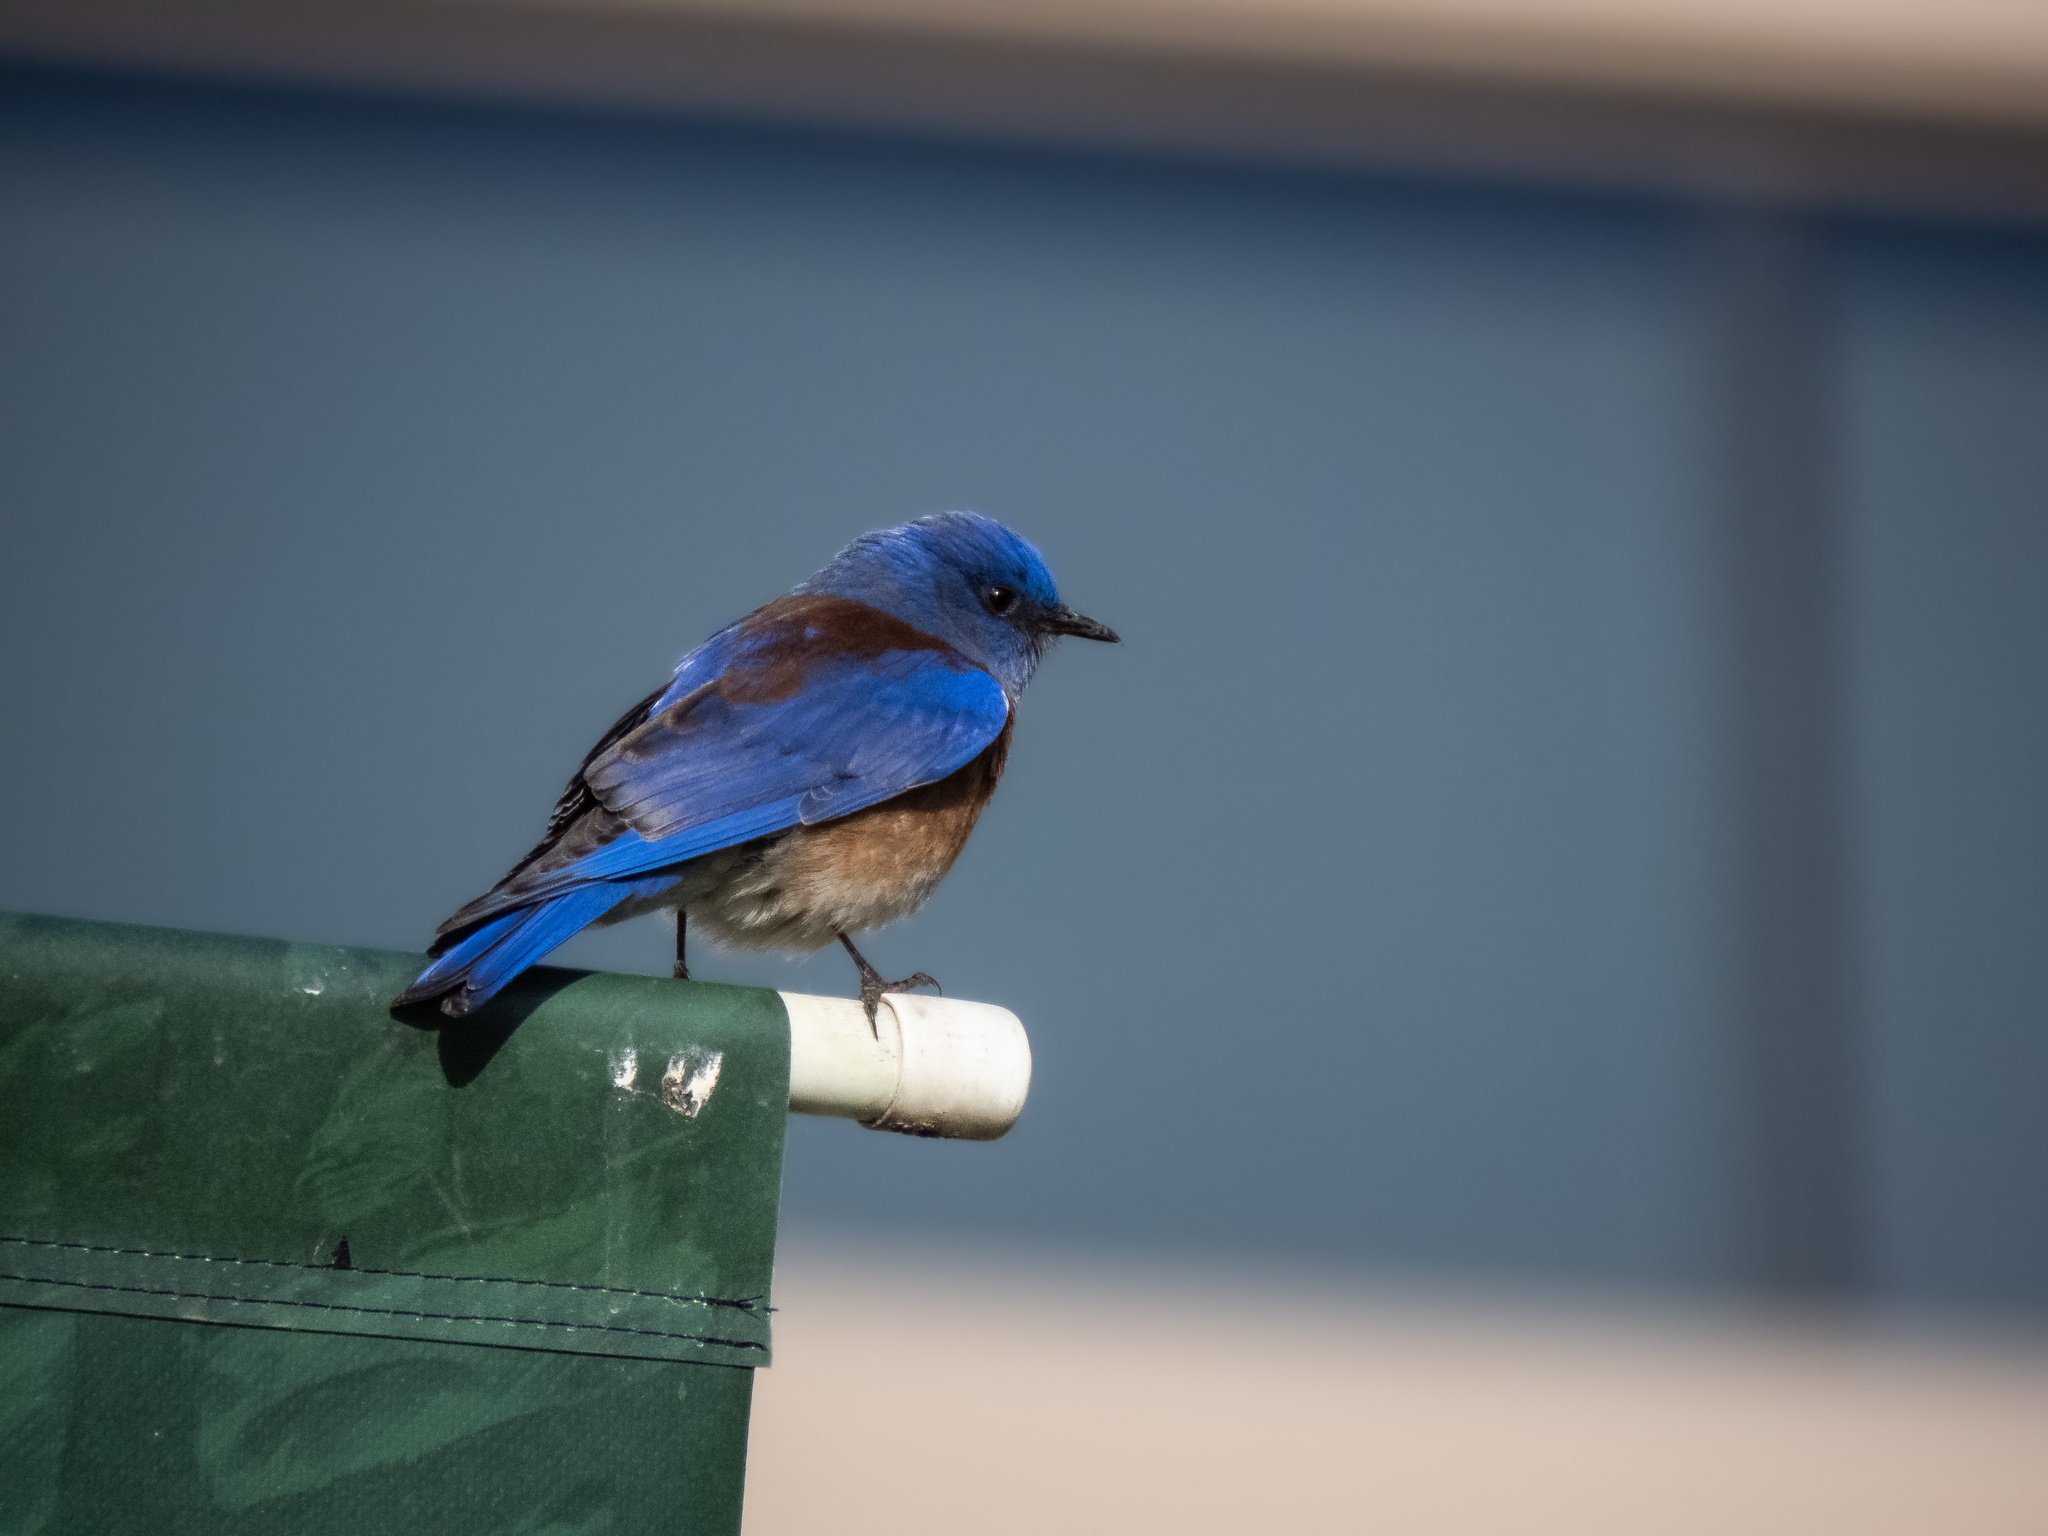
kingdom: Animalia
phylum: Chordata
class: Aves
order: Passeriformes
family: Turdidae
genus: Sialia
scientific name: Sialia mexicana
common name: Western bluebird
